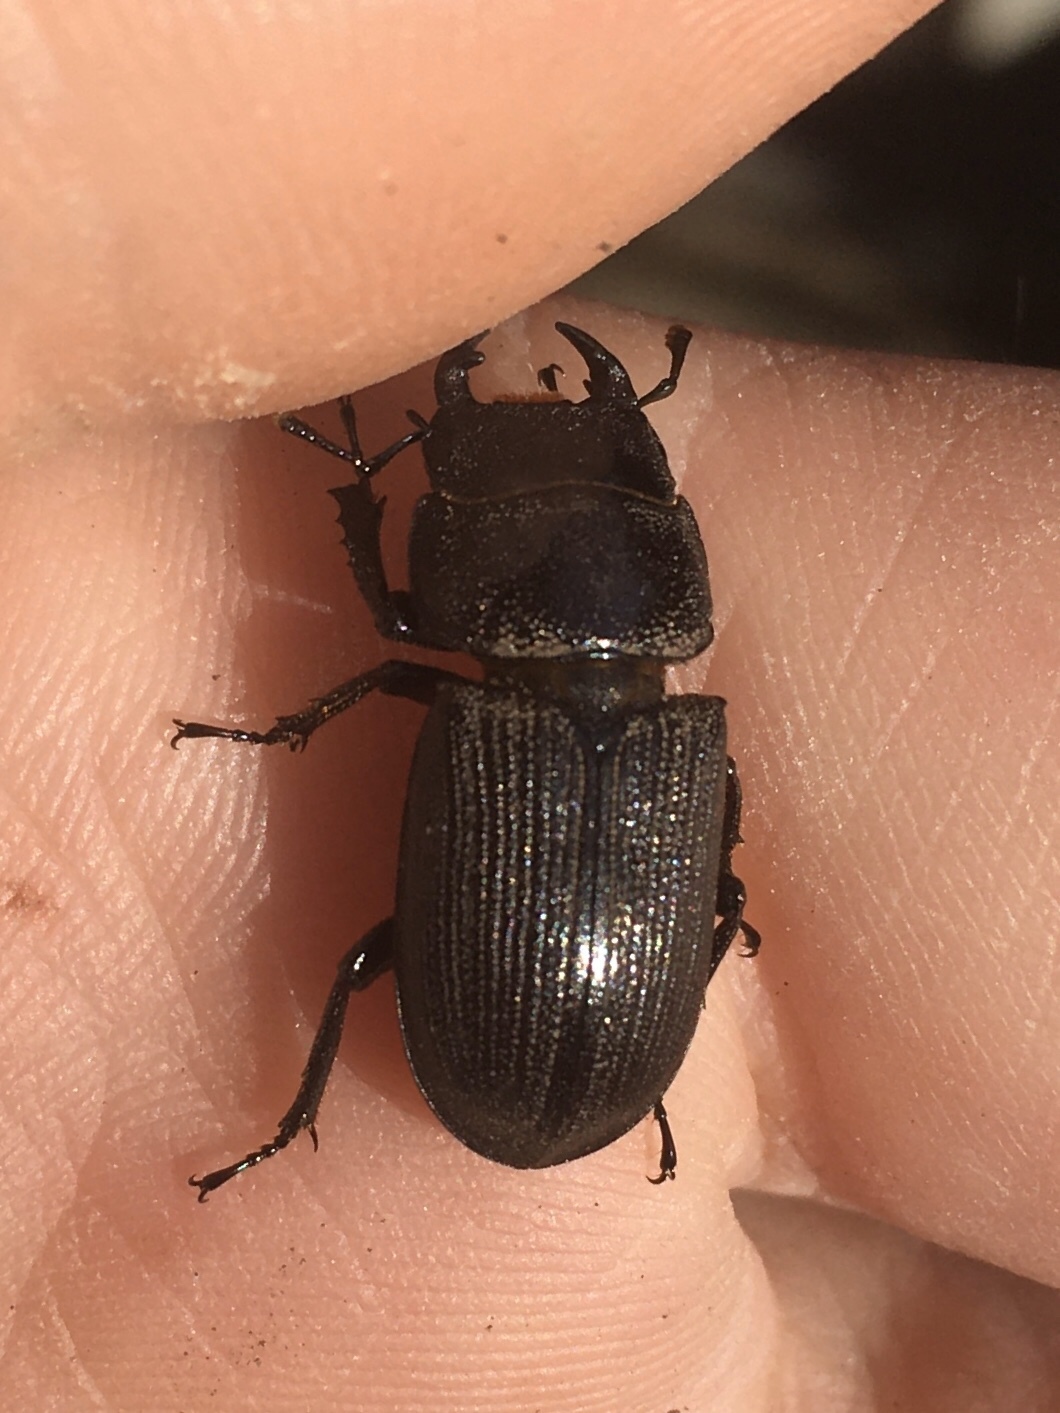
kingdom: Animalia
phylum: Arthropoda
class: Insecta
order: Coleoptera
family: Lucanidae
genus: Dorcus
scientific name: Dorcus parallelus
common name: Antelope beetle
